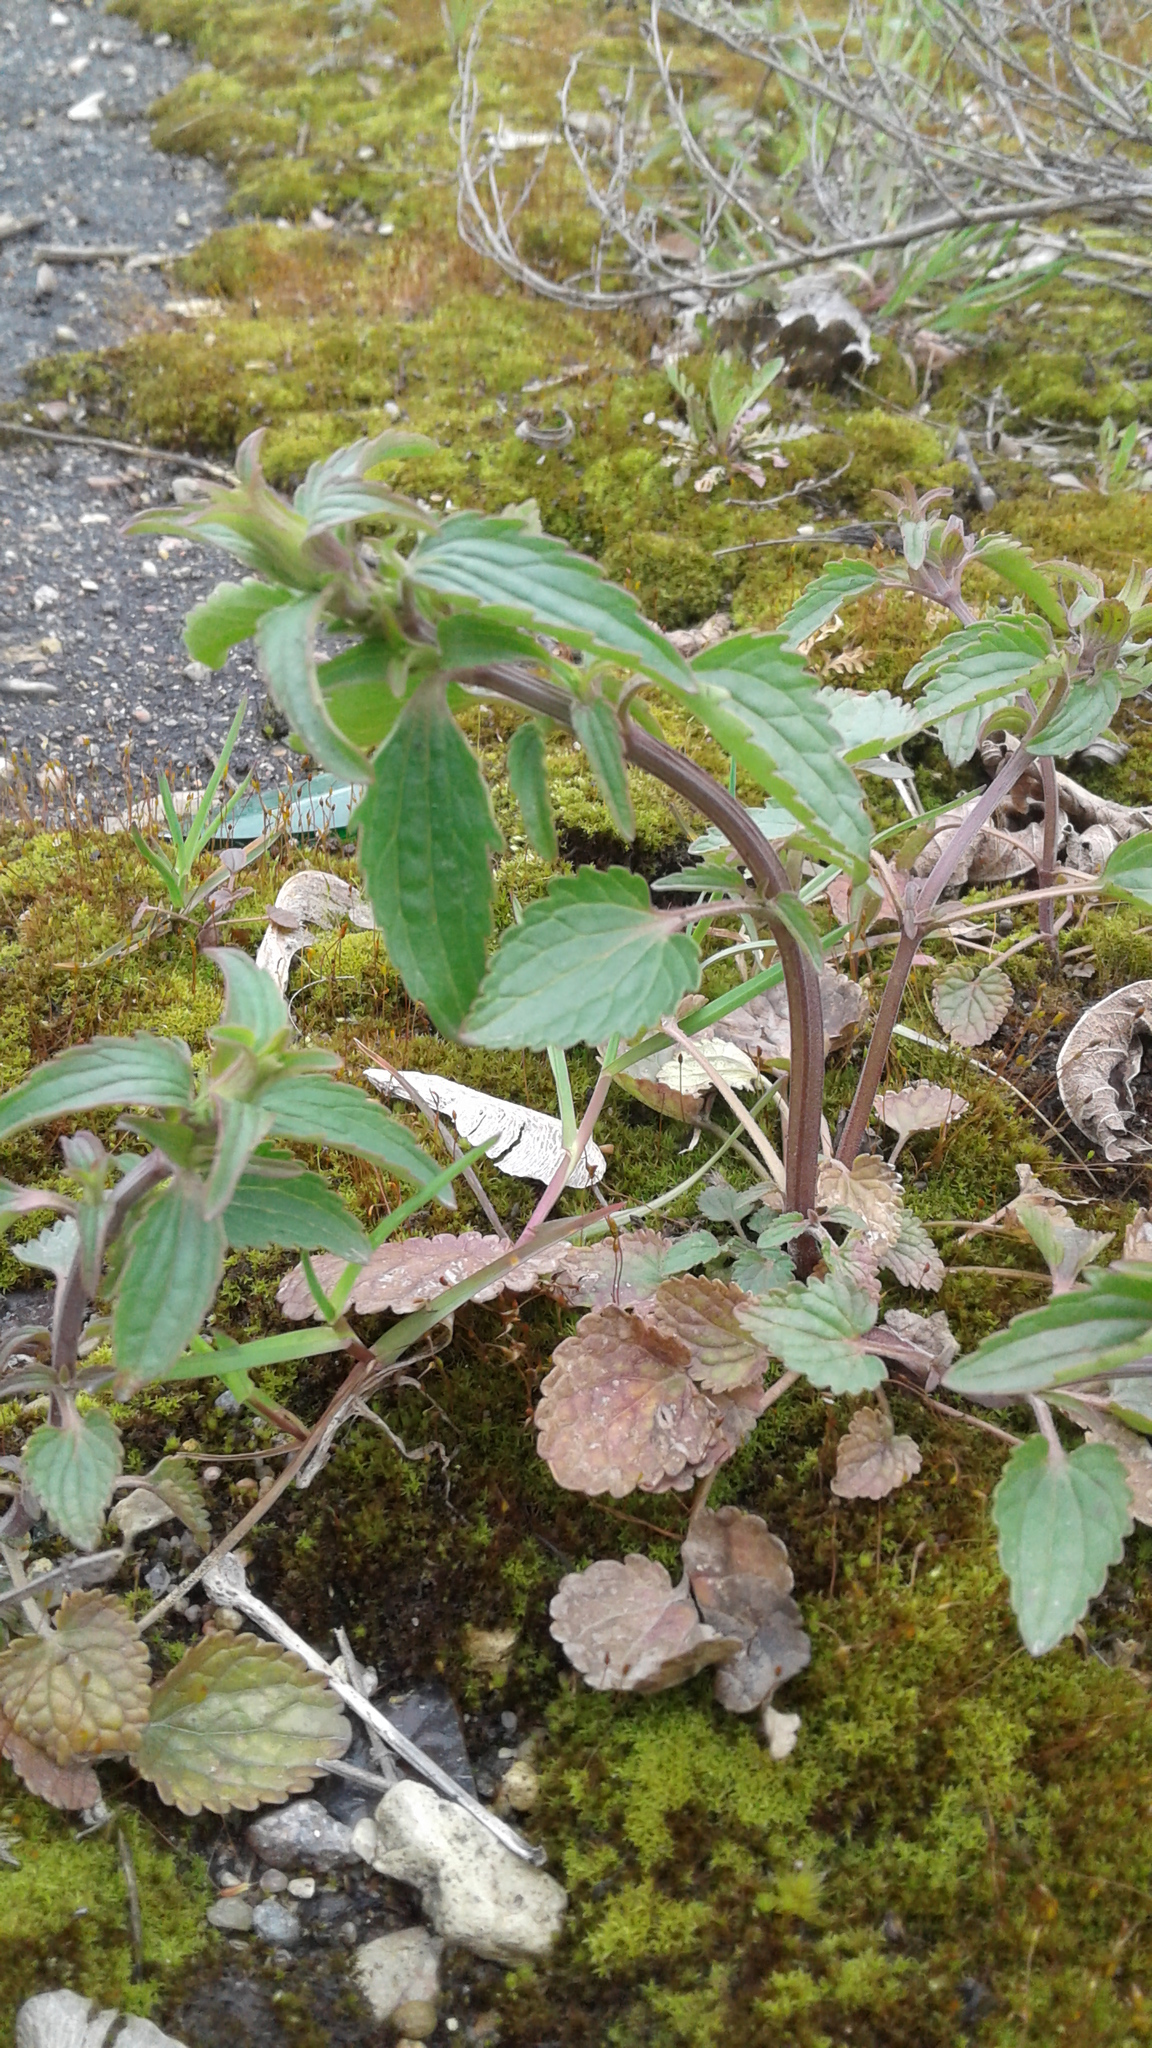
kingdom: Plantae
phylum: Tracheophyta
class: Magnoliopsida
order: Lamiales
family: Lamiaceae
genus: Dracocephalum
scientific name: Dracocephalum thymiflorum
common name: Thymeleaf dragonhead
